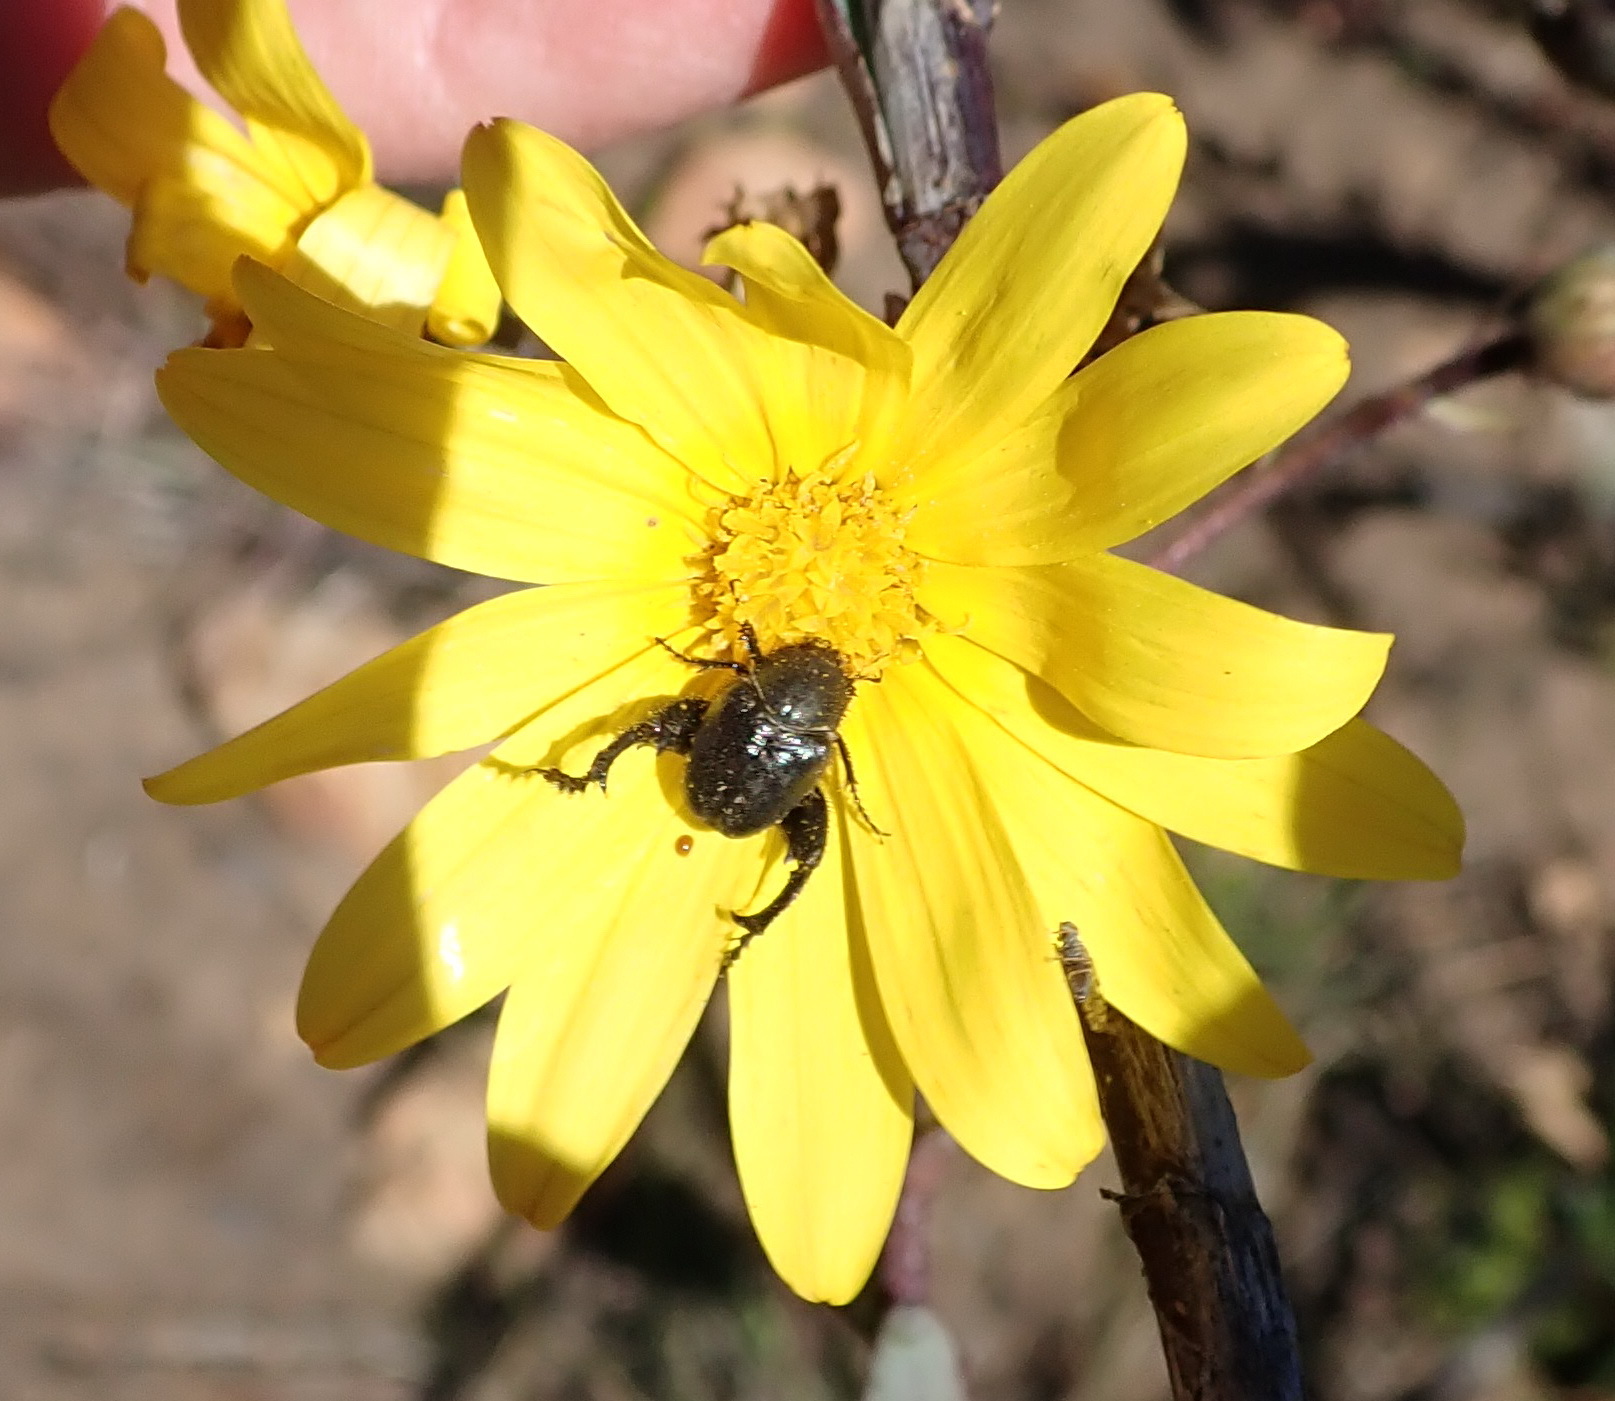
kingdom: Plantae
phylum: Tracheophyta
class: Magnoliopsida
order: Asterales
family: Asteraceae
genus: Osteospermum
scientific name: Osteospermum polygaloides
